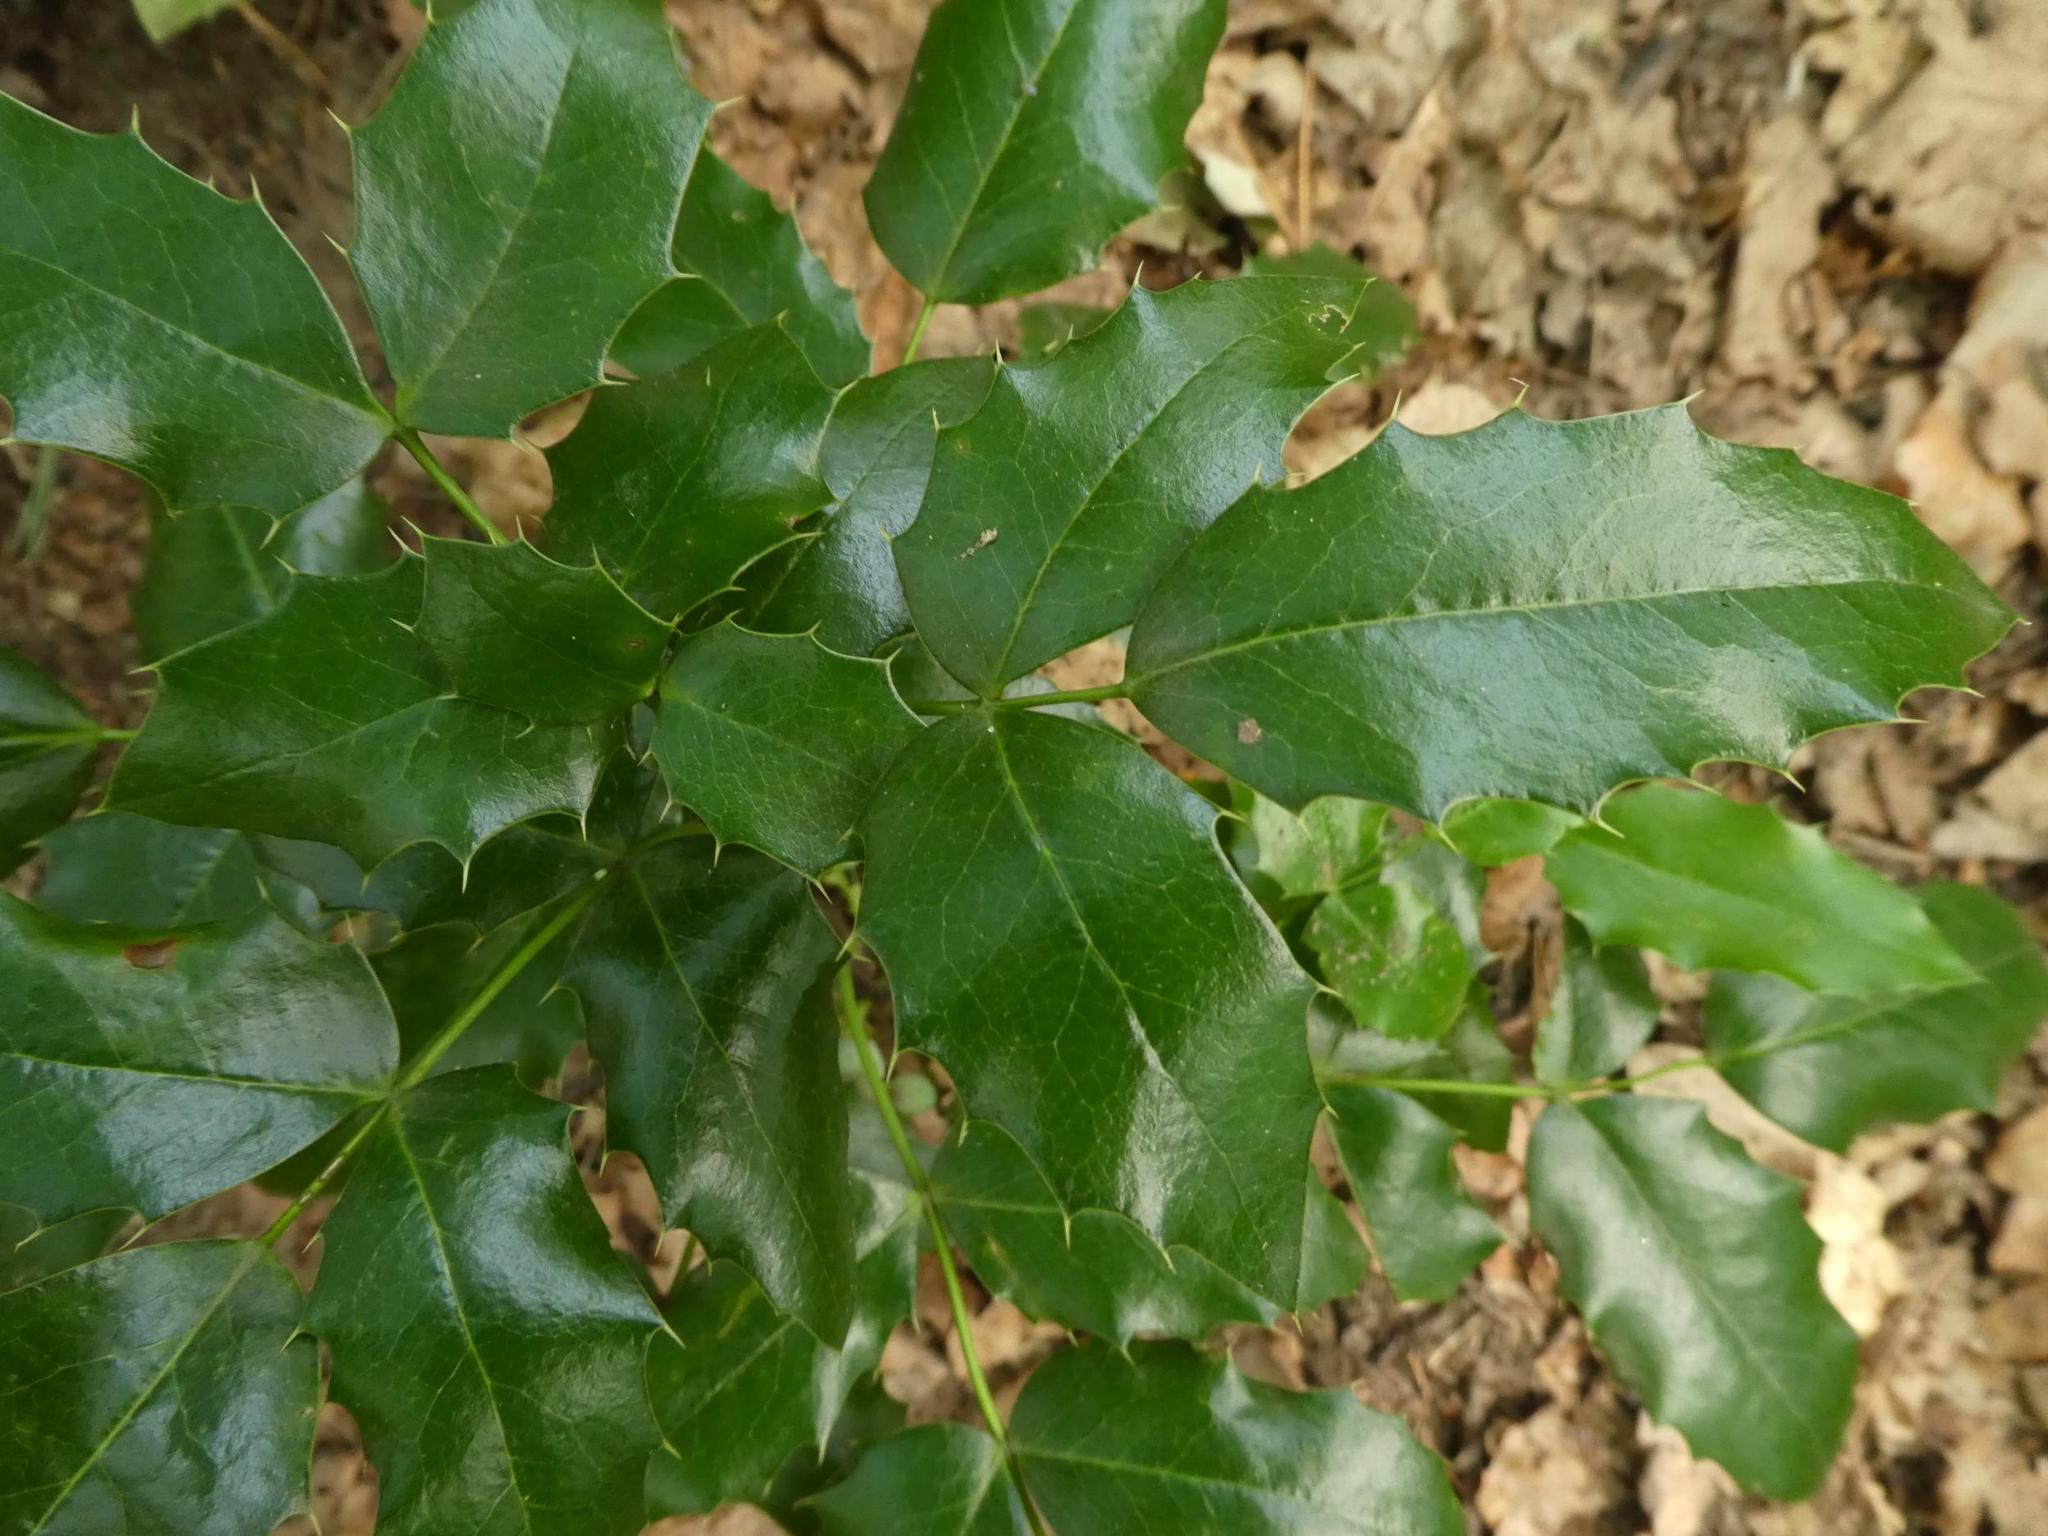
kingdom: Plantae
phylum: Tracheophyta
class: Magnoliopsida
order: Ranunculales
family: Berberidaceae
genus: Mahonia
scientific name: Mahonia aquifolium
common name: Oregon-grape
